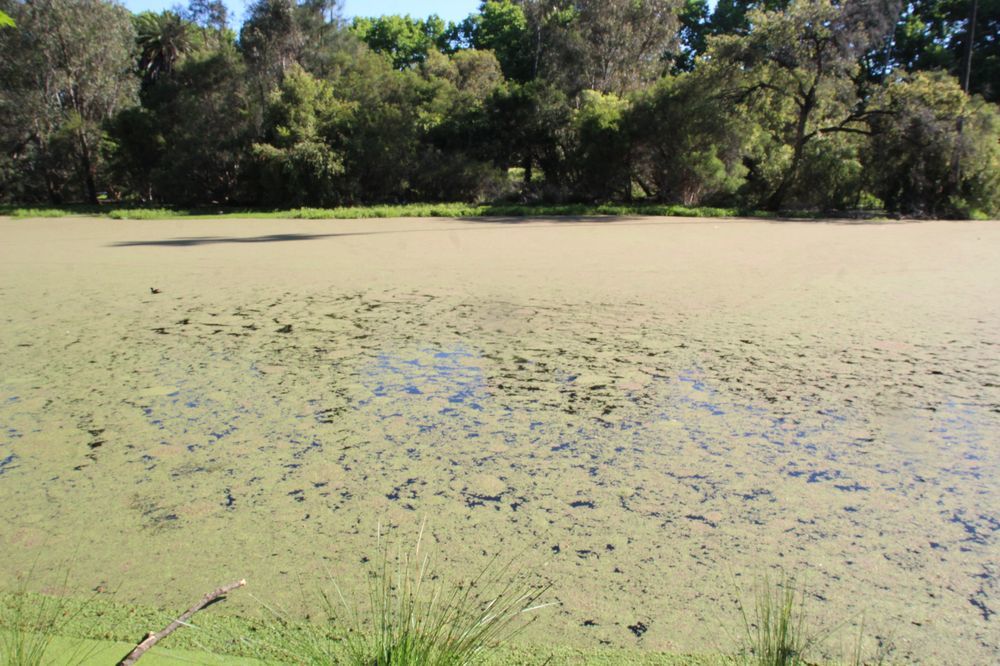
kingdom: Plantae
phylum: Tracheophyta
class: Polypodiopsida
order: Salviniales
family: Salviniaceae
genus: Azolla
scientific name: Azolla rubra
